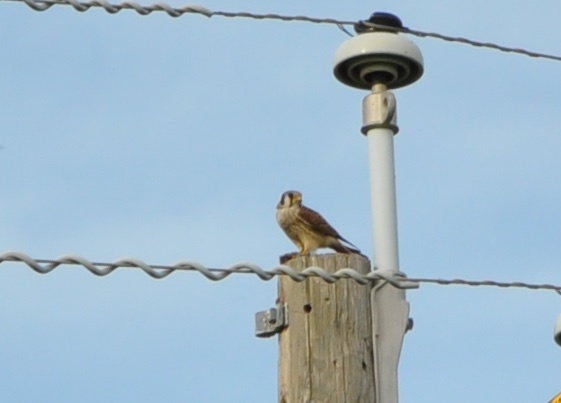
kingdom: Animalia
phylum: Chordata
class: Aves
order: Falconiformes
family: Falconidae
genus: Falco
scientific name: Falco sparverius
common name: American kestrel
